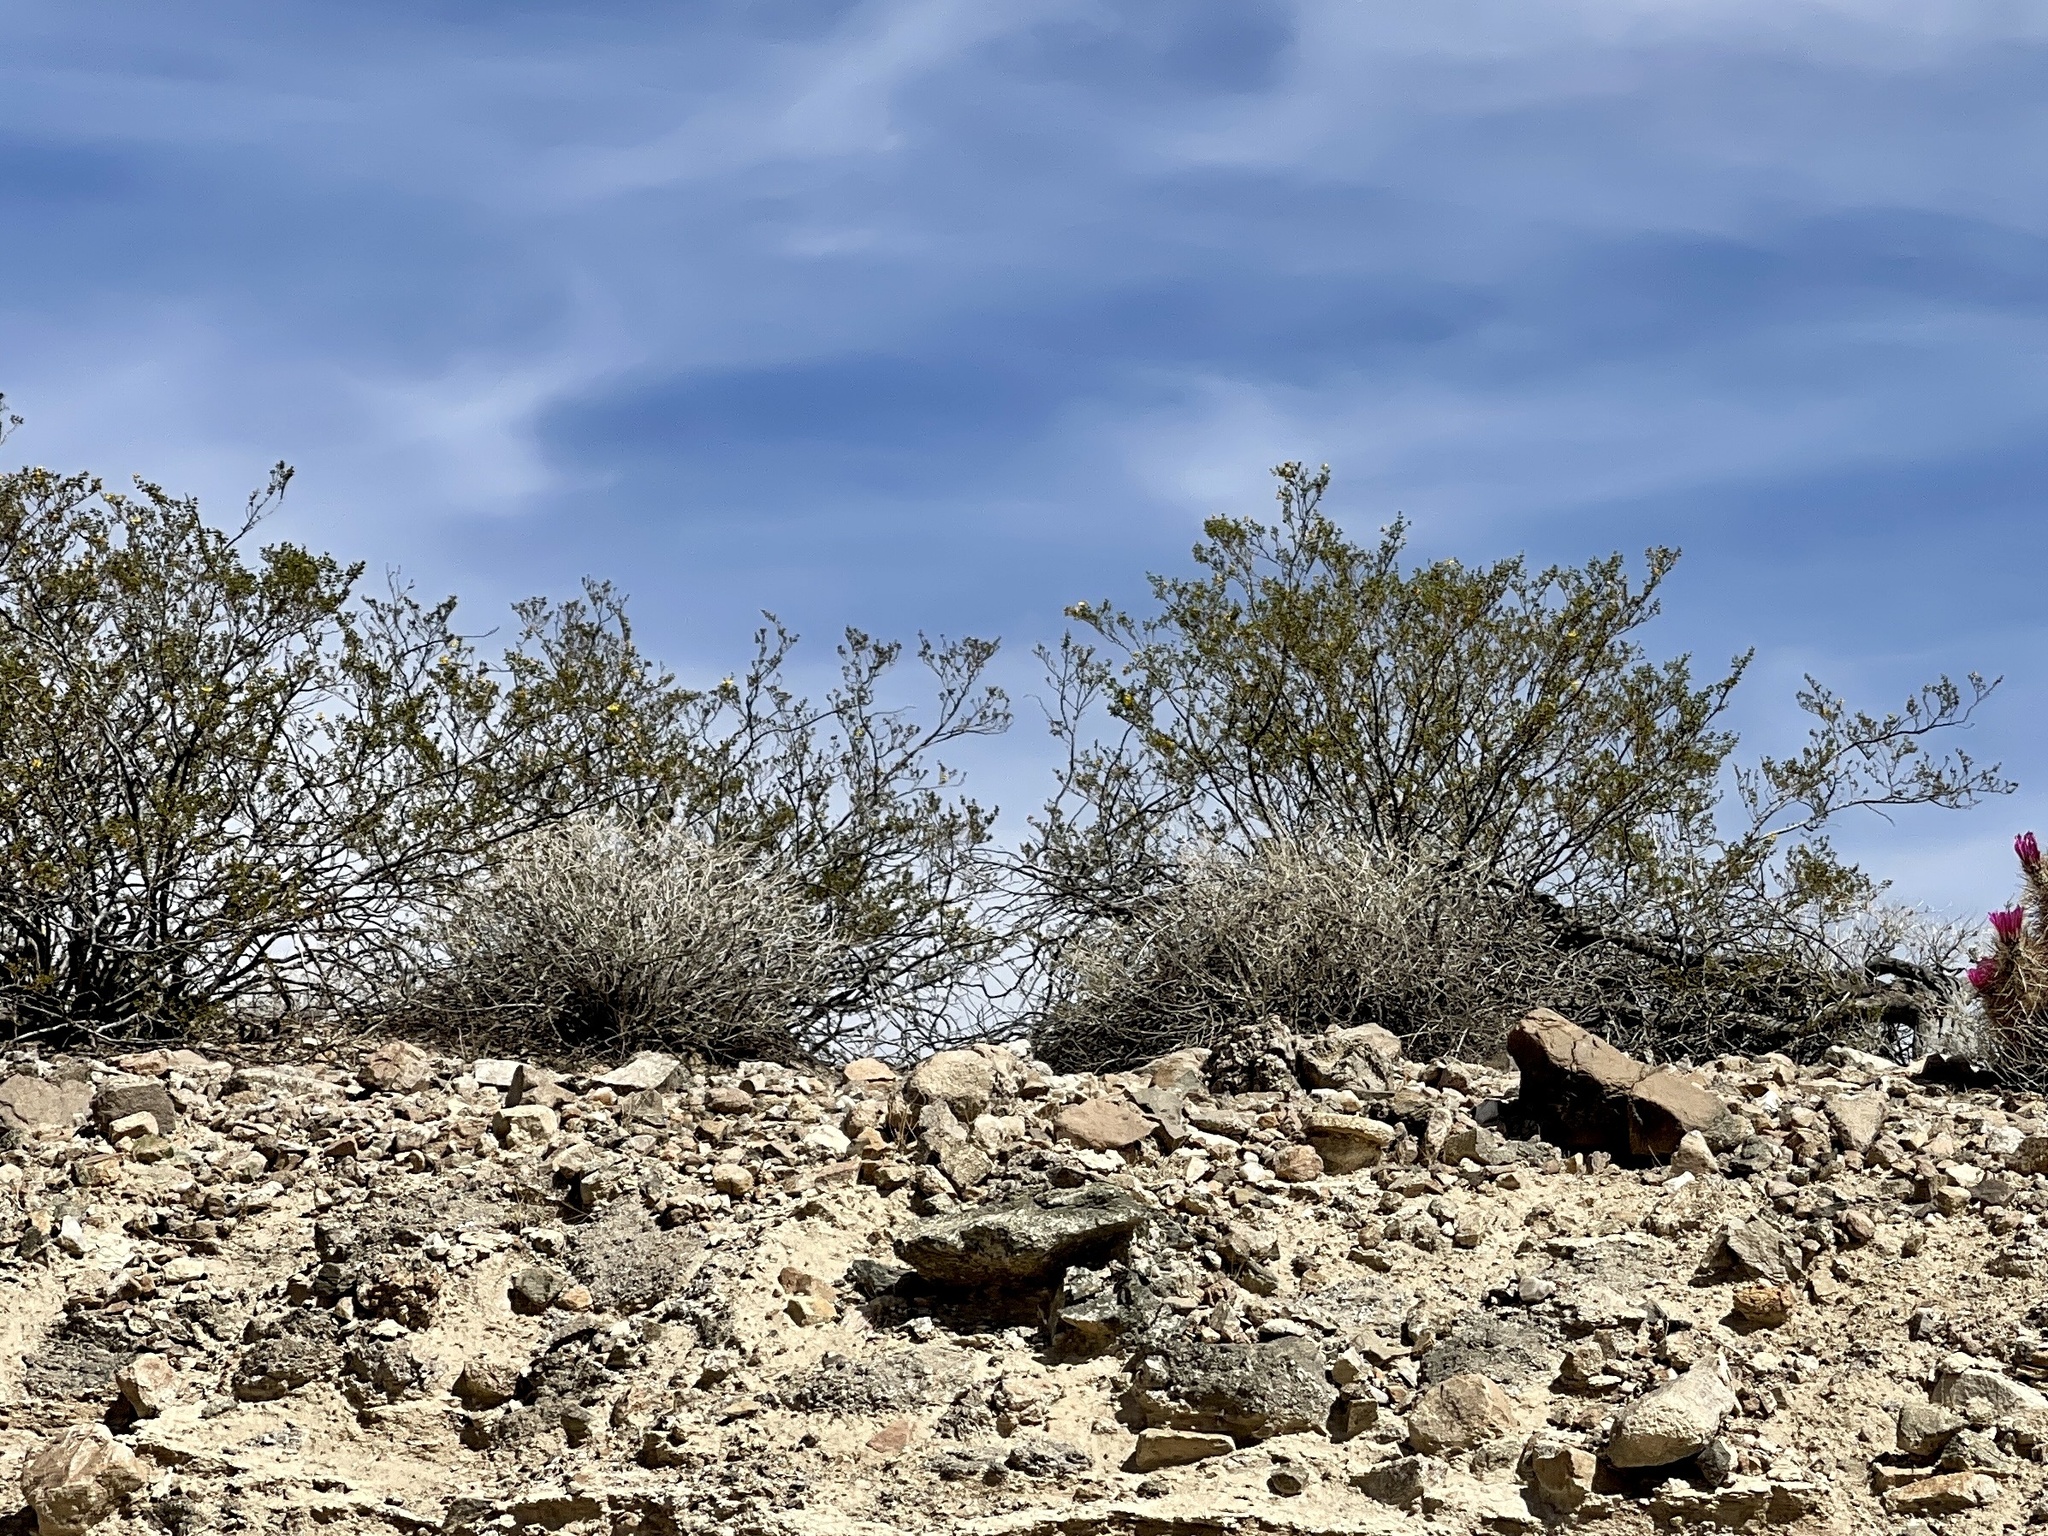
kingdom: Plantae
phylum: Tracheophyta
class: Magnoliopsida
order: Zygophyllales
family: Zygophyllaceae
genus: Larrea
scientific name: Larrea tridentata
